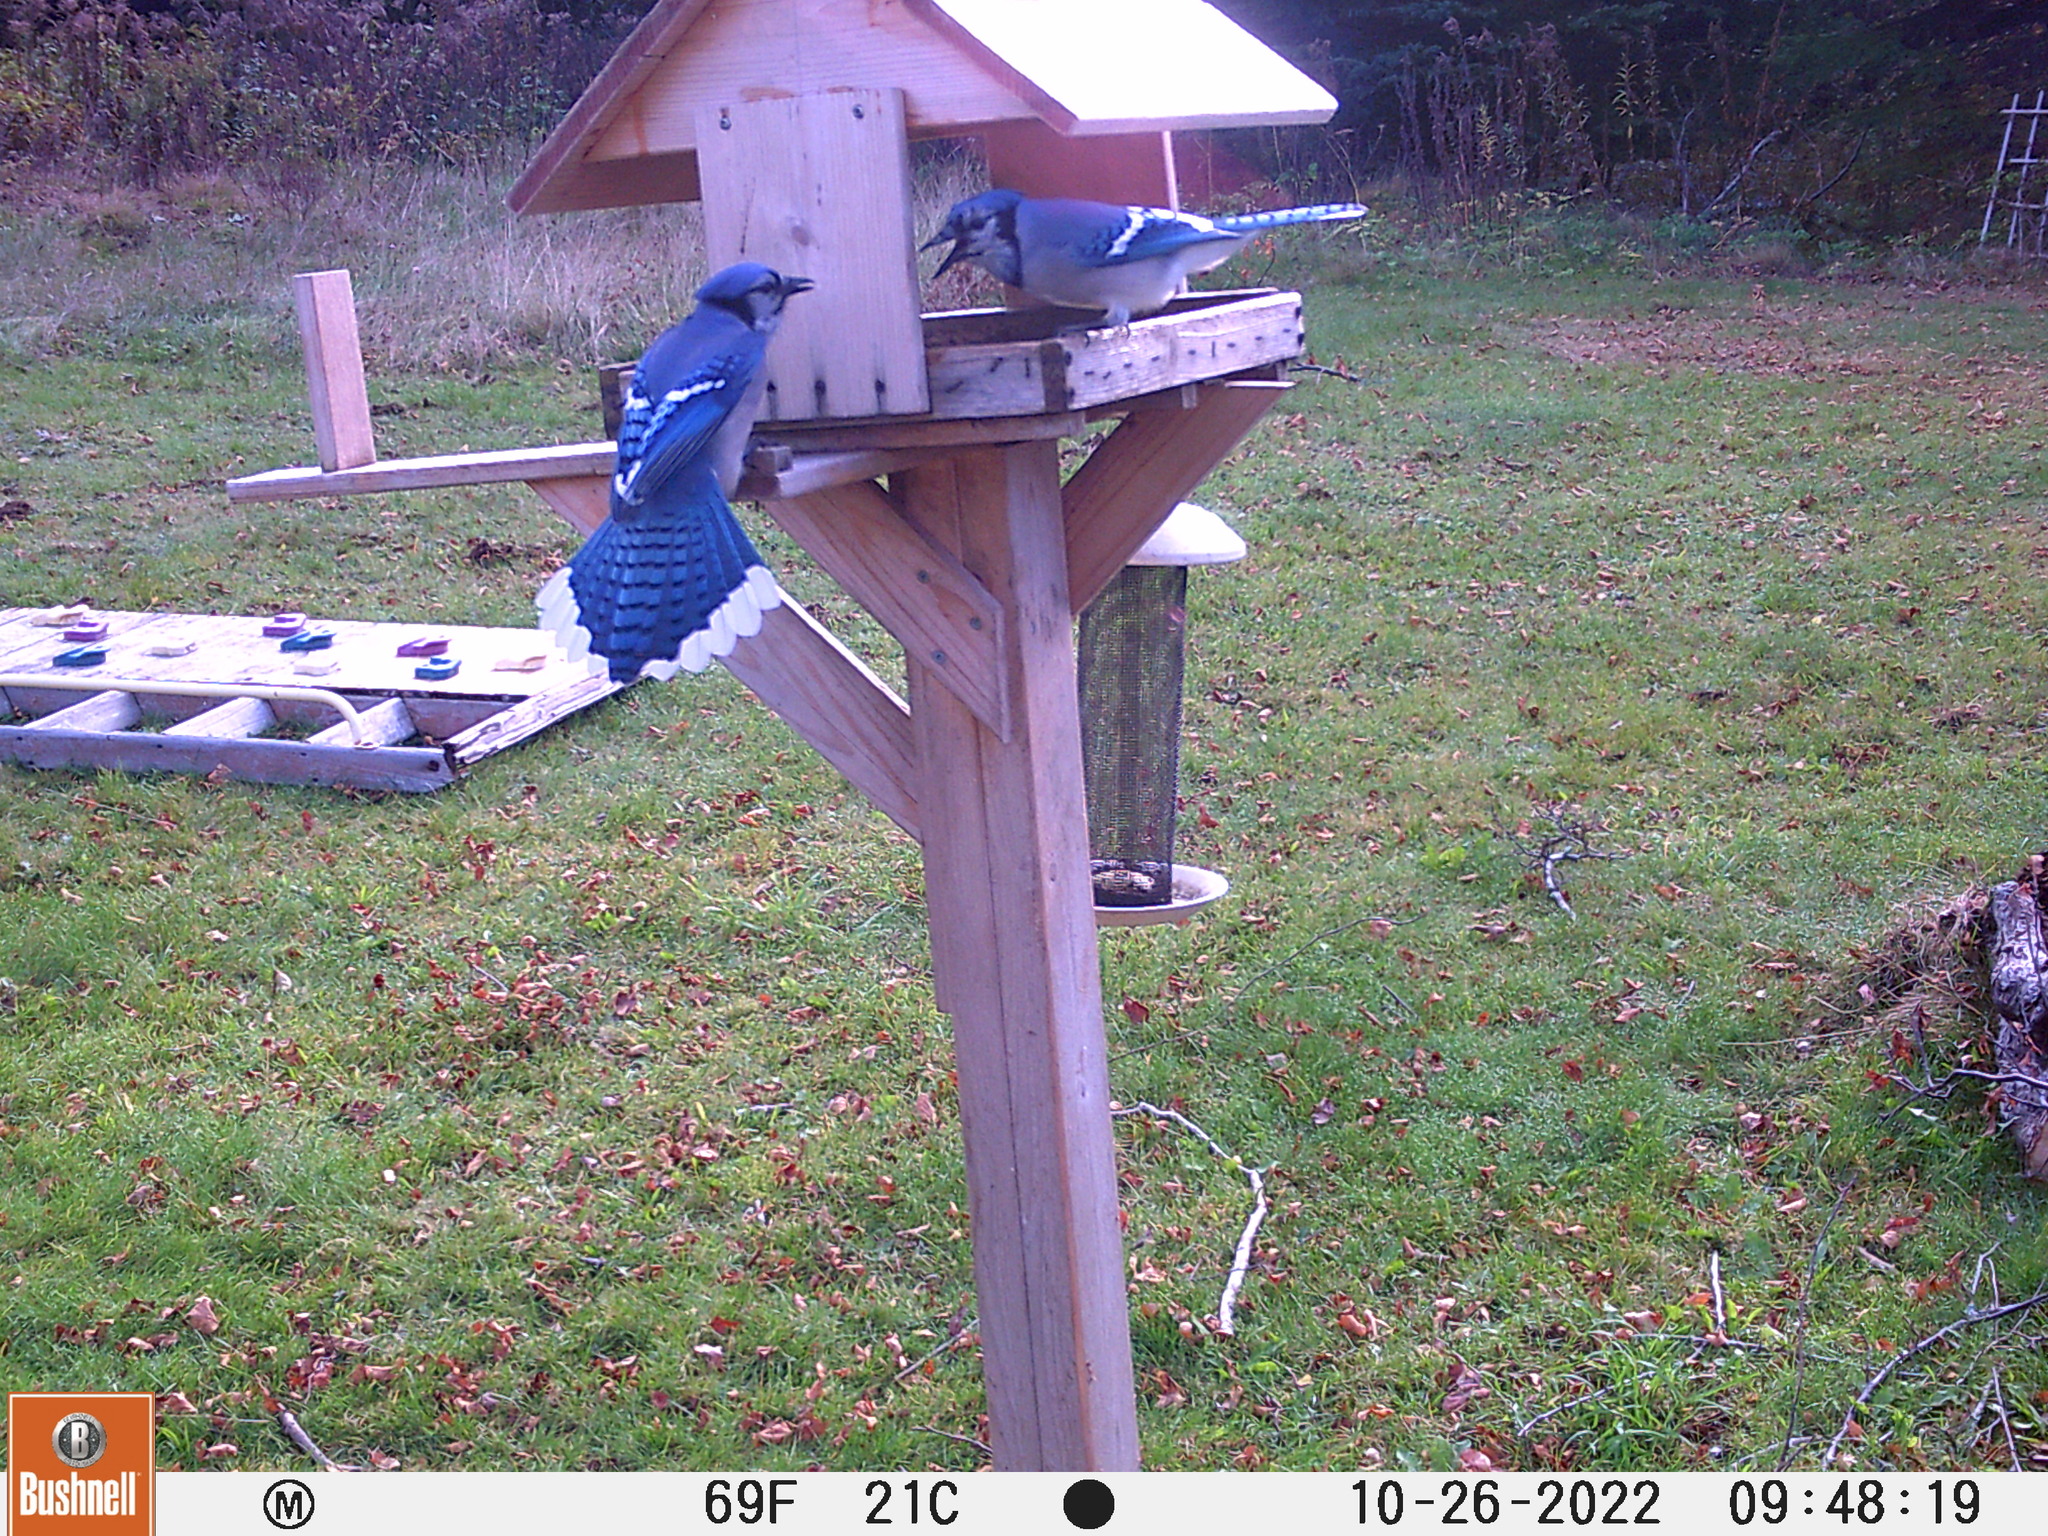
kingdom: Animalia
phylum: Chordata
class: Aves
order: Passeriformes
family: Corvidae
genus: Cyanocitta
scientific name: Cyanocitta cristata
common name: Blue jay
